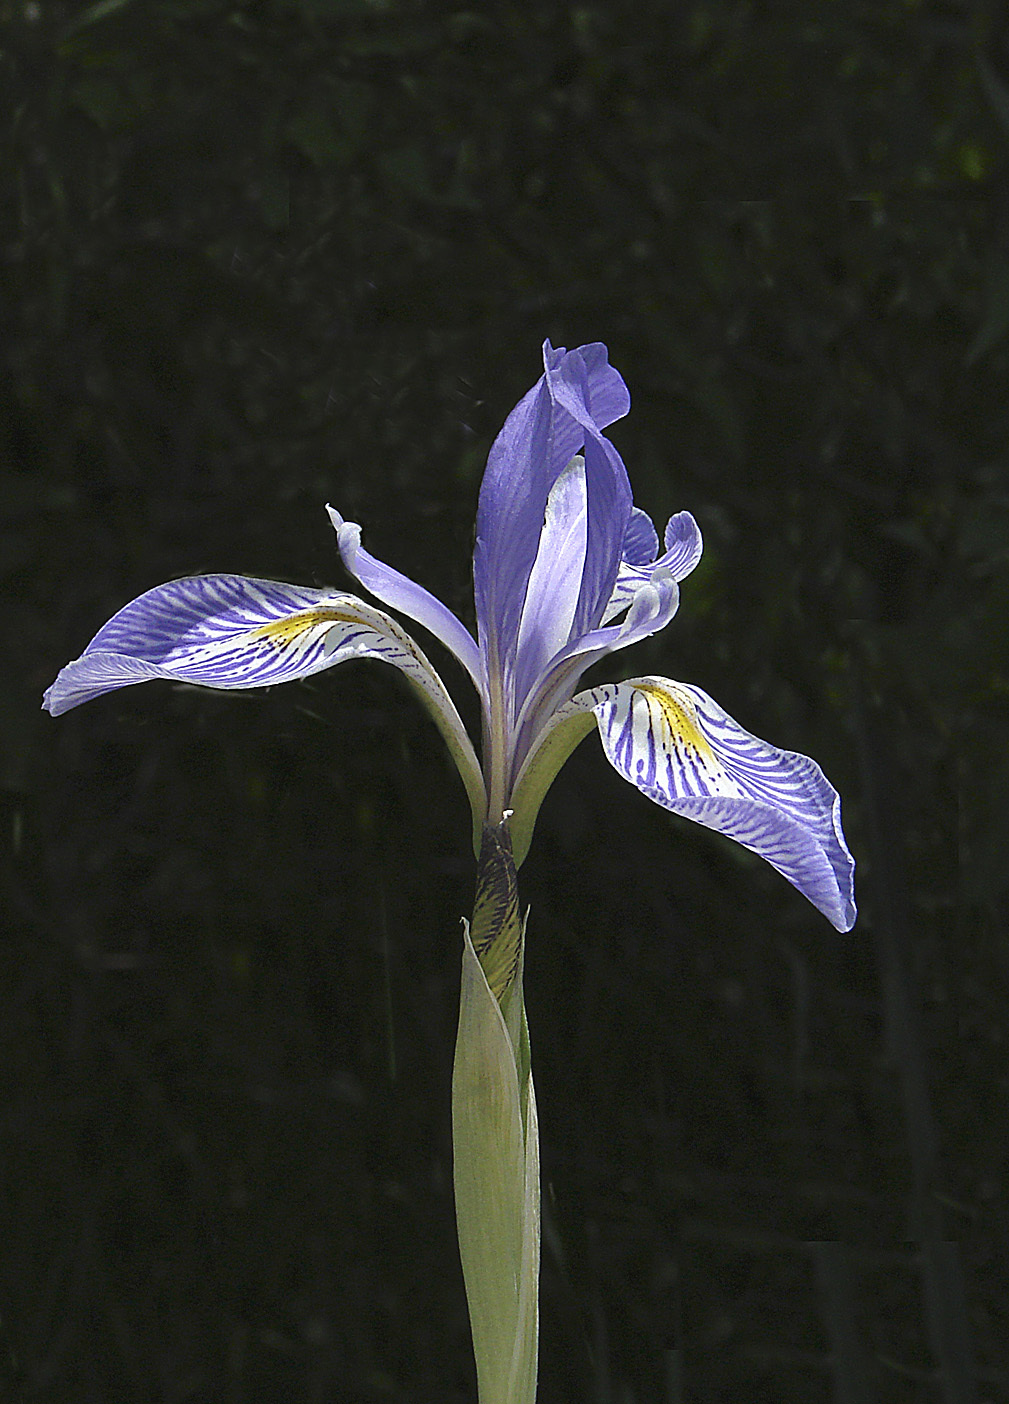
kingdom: Plantae
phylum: Tracheophyta
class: Liliopsida
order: Asparagales
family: Iridaceae
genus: Iris
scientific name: Iris missouriensis
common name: Rocky mountain iris
